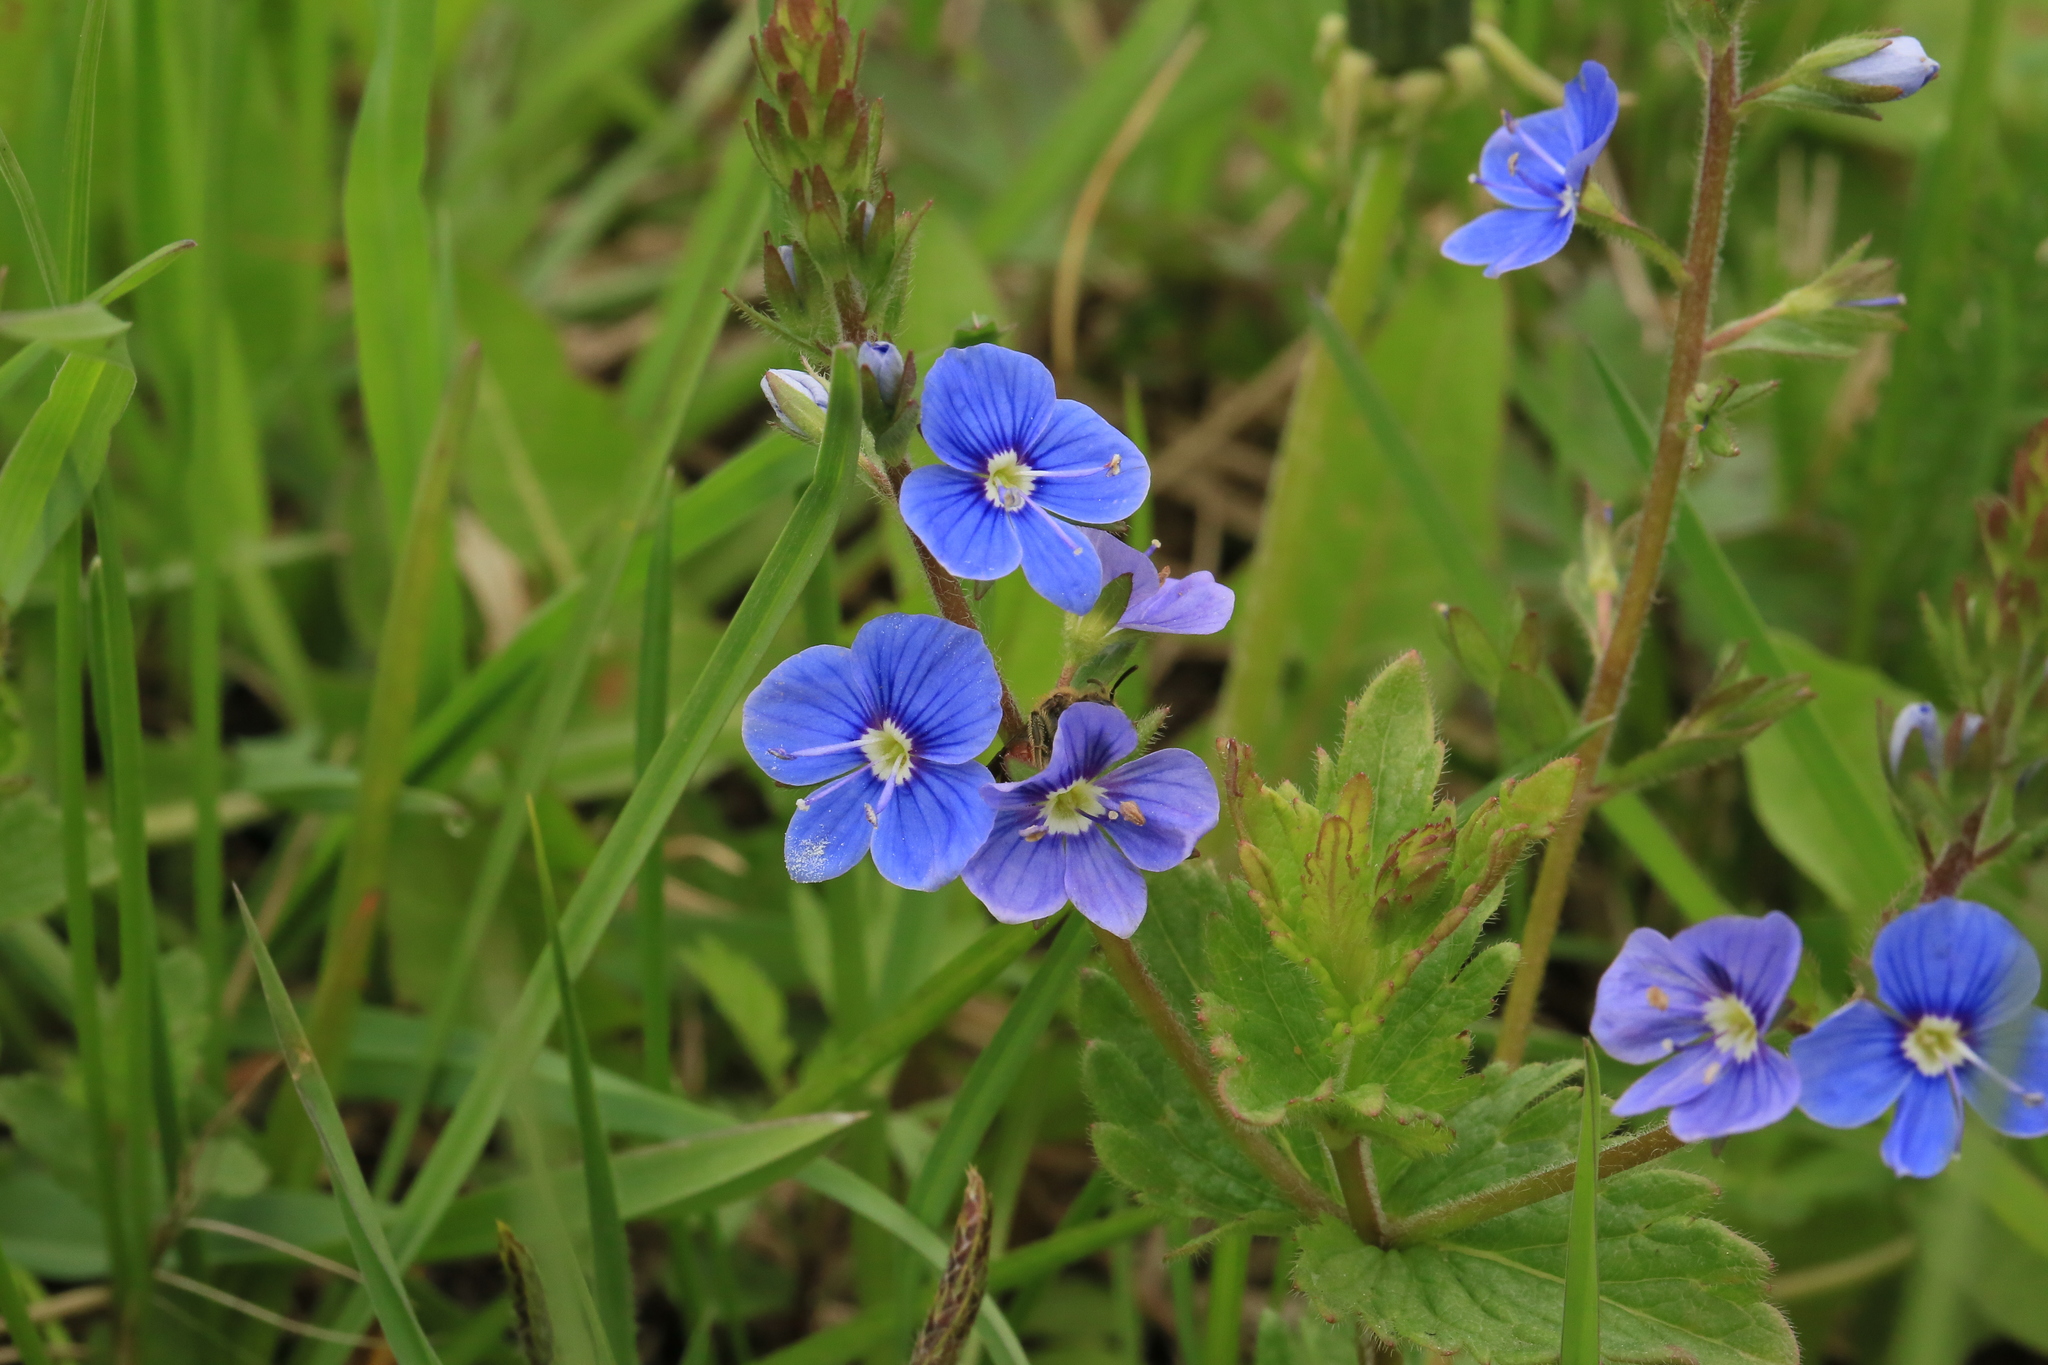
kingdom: Plantae
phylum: Tracheophyta
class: Magnoliopsida
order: Lamiales
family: Plantaginaceae
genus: Veronica
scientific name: Veronica chamaedrys
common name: Germander speedwell
